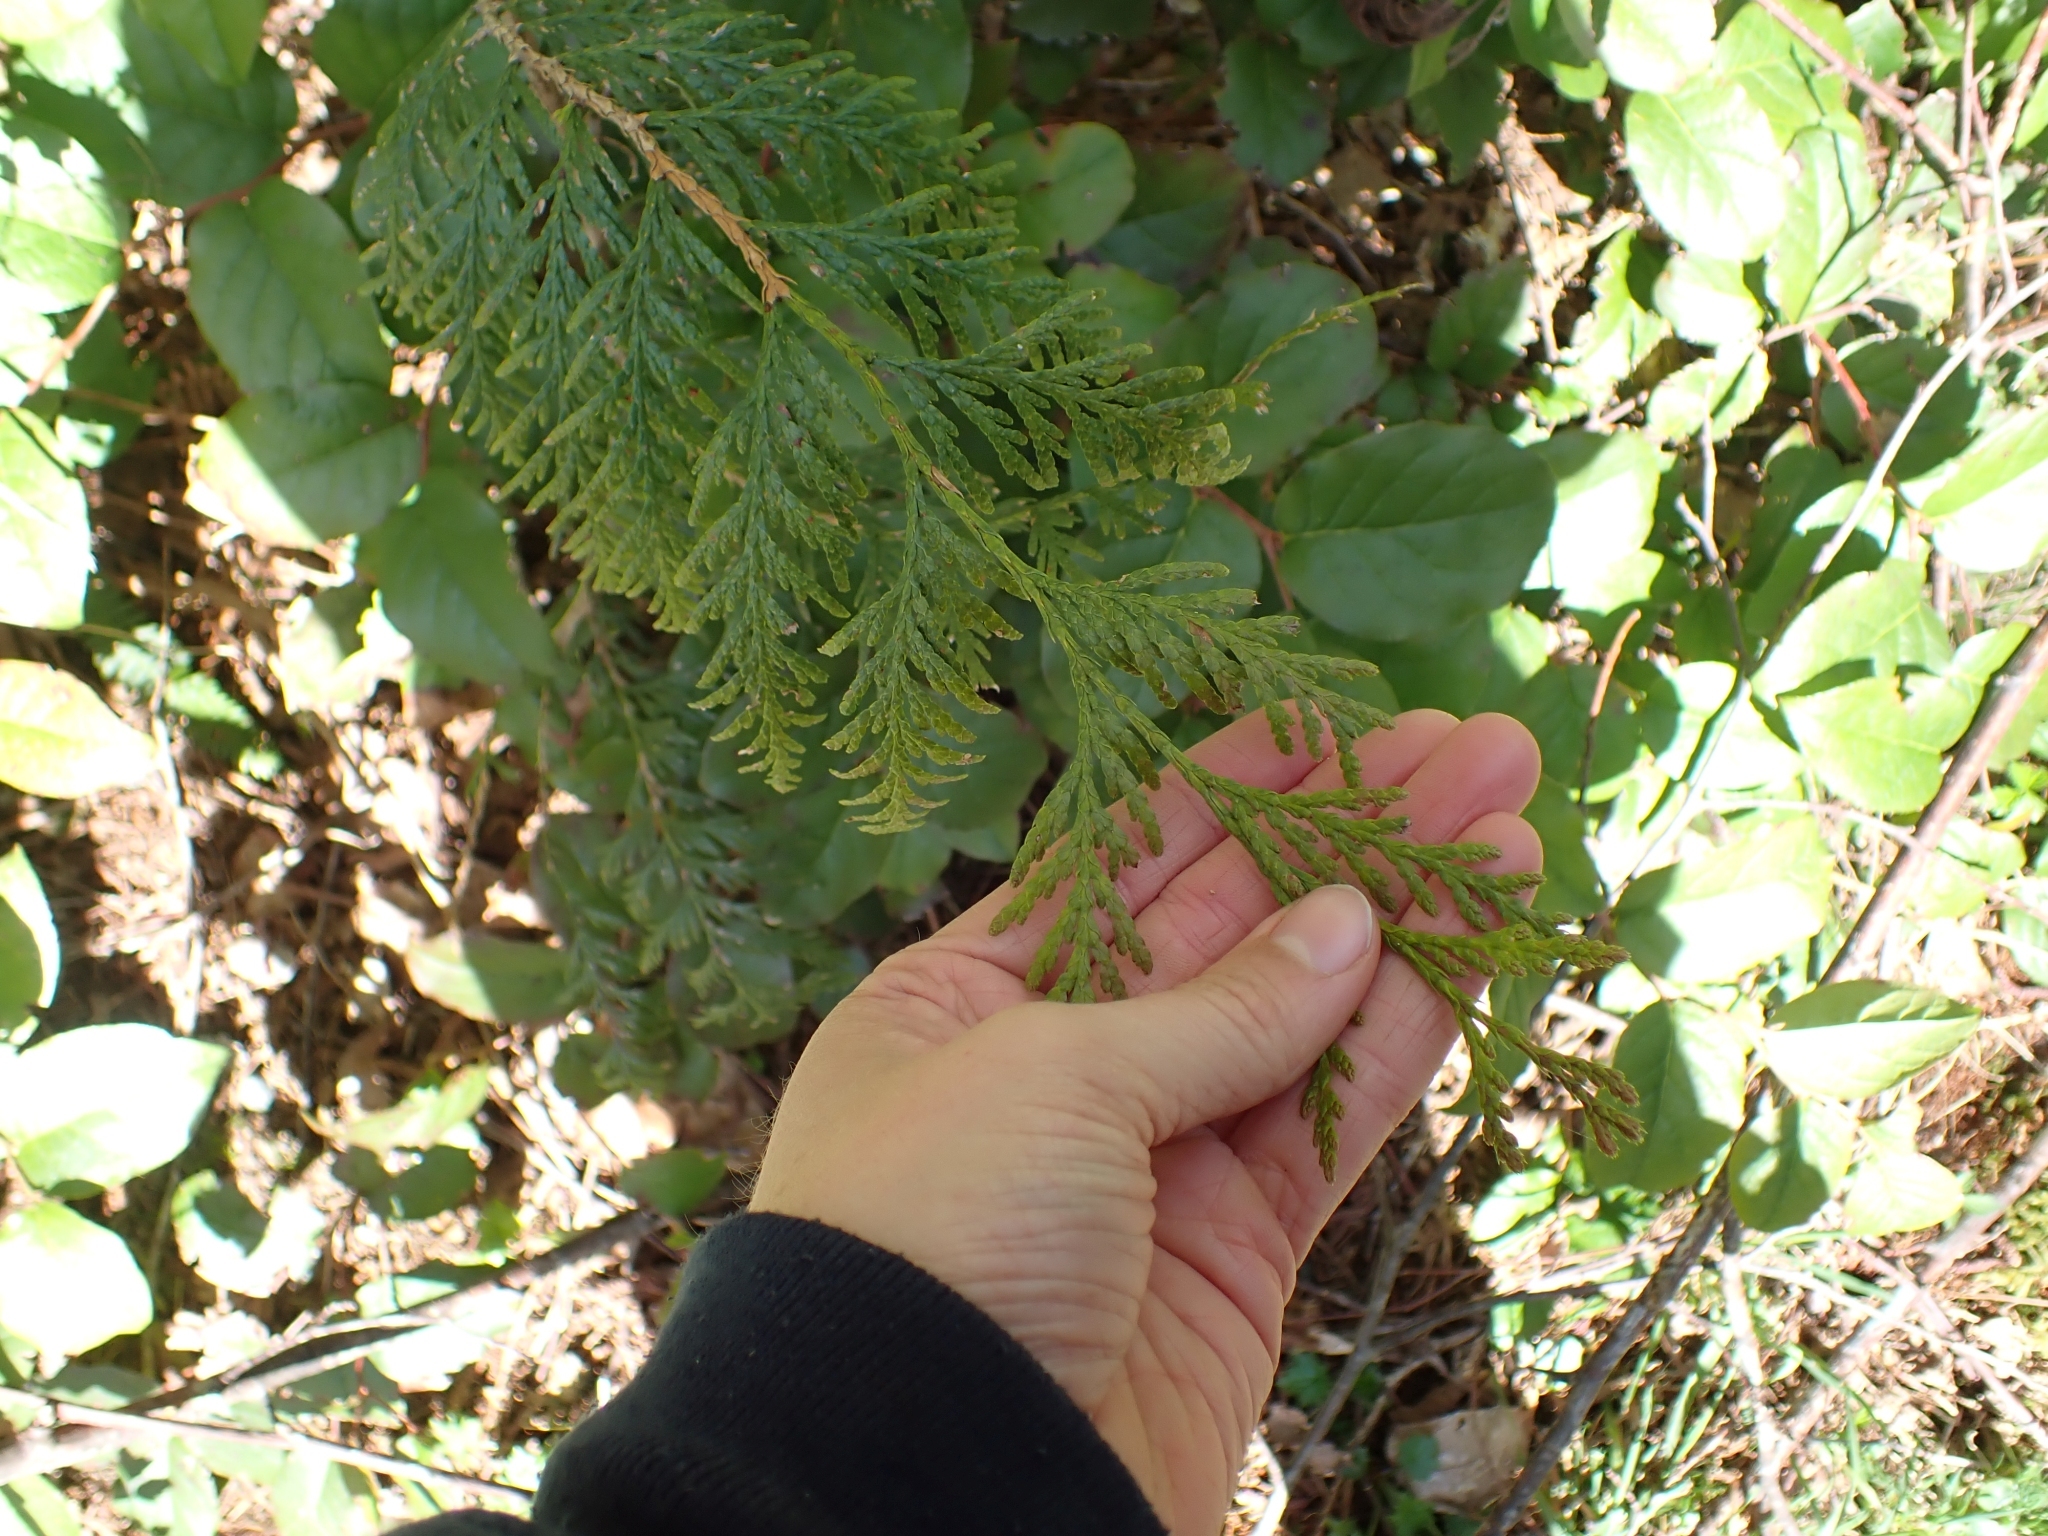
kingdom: Plantae
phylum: Tracheophyta
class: Pinopsida
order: Pinales
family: Cupressaceae
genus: Thuja
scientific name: Thuja plicata
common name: Western red-cedar
